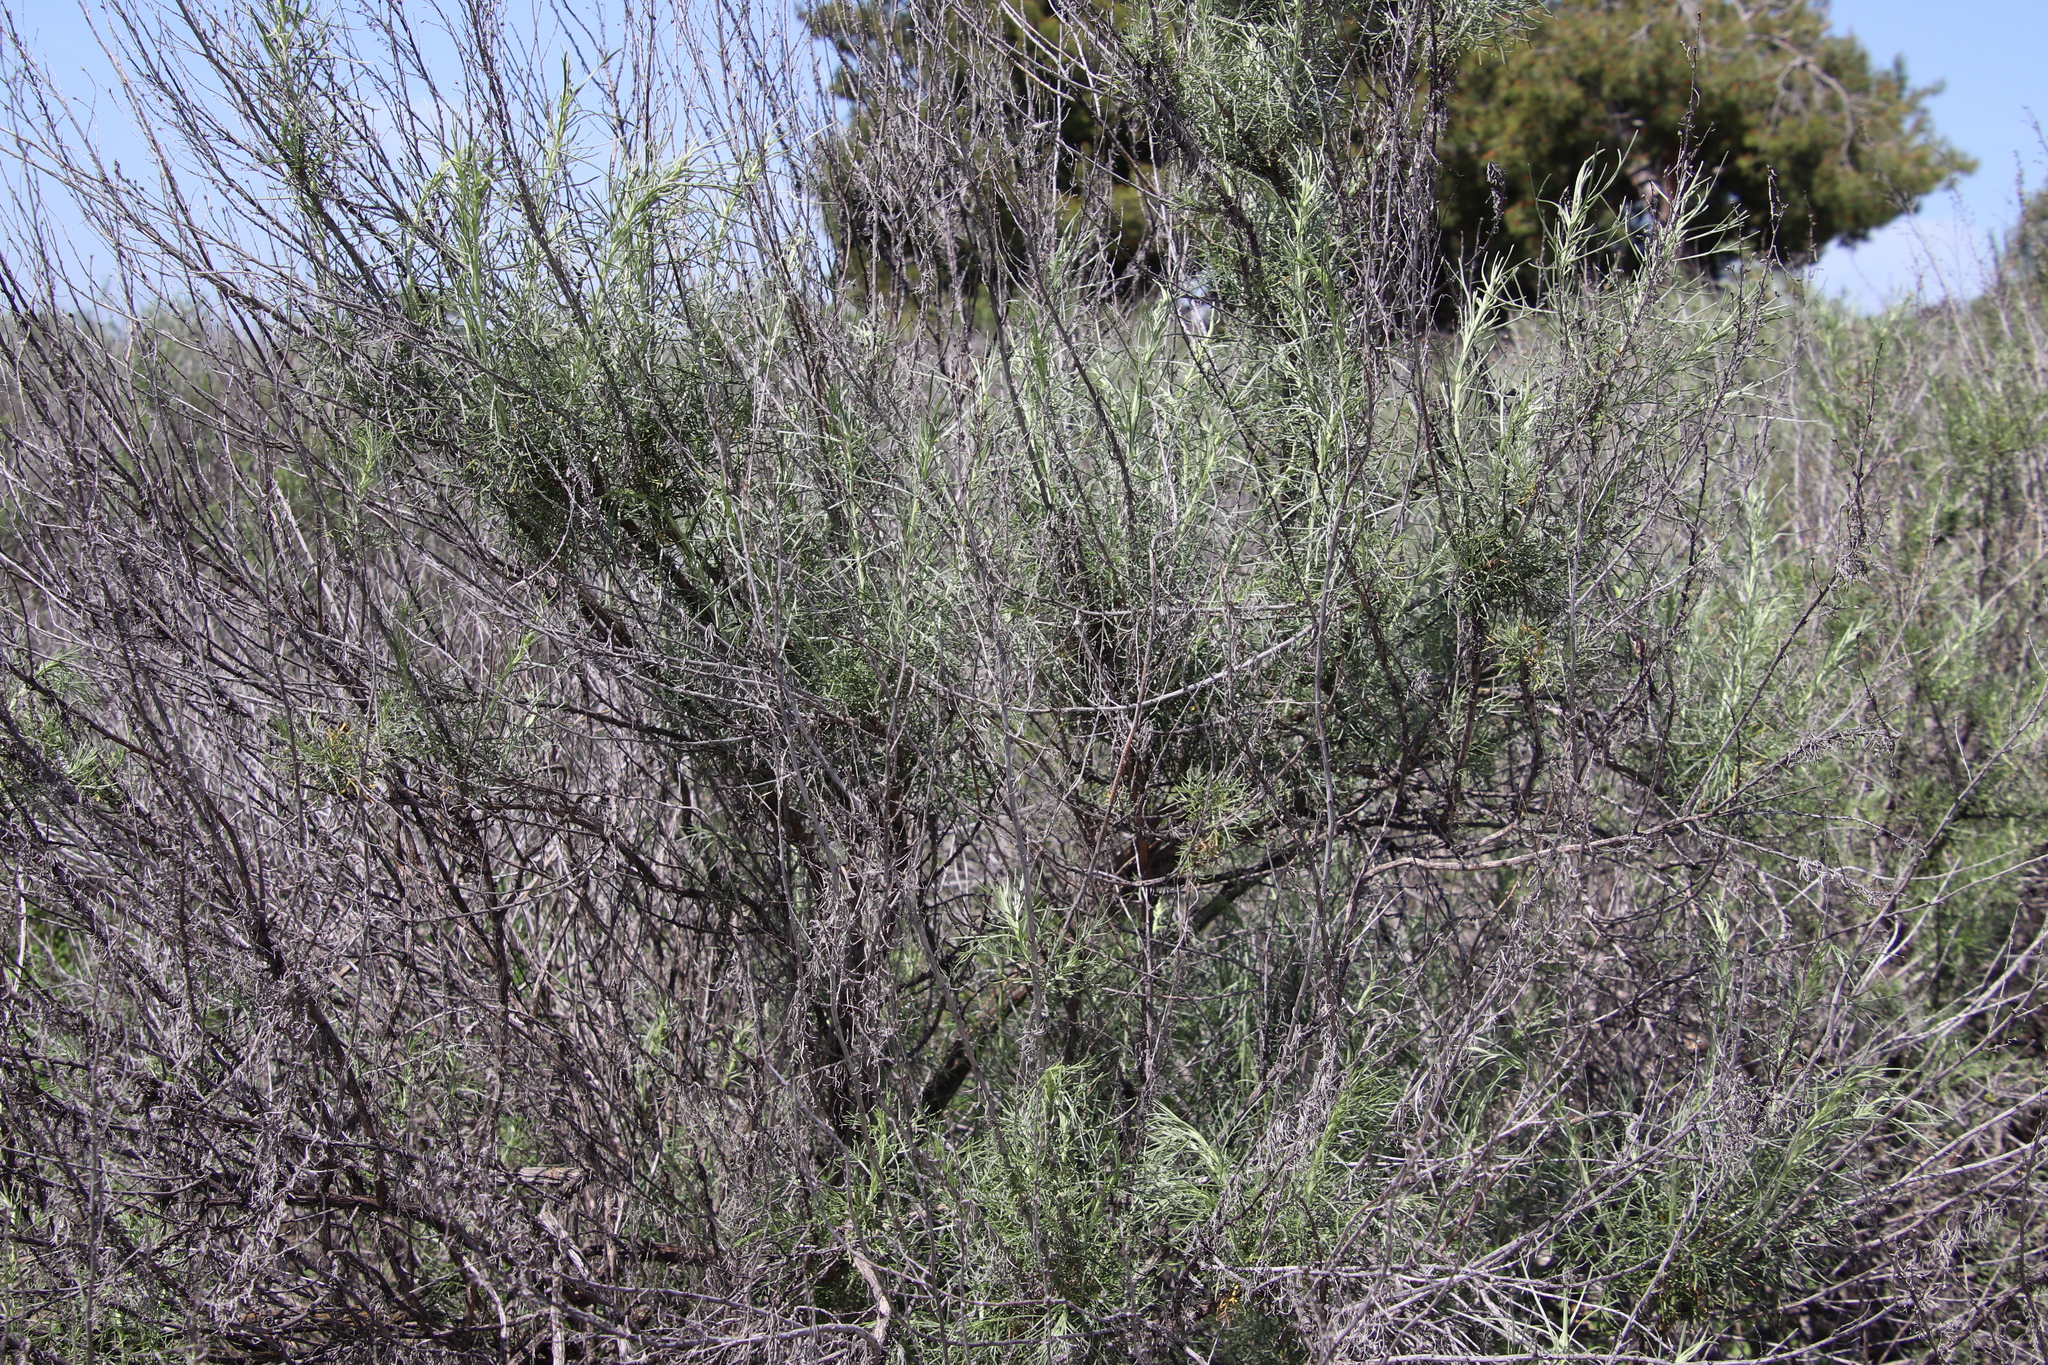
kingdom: Plantae
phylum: Tracheophyta
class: Magnoliopsida
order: Asterales
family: Asteraceae
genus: Artemisia
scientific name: Artemisia californica
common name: California sagebrush
